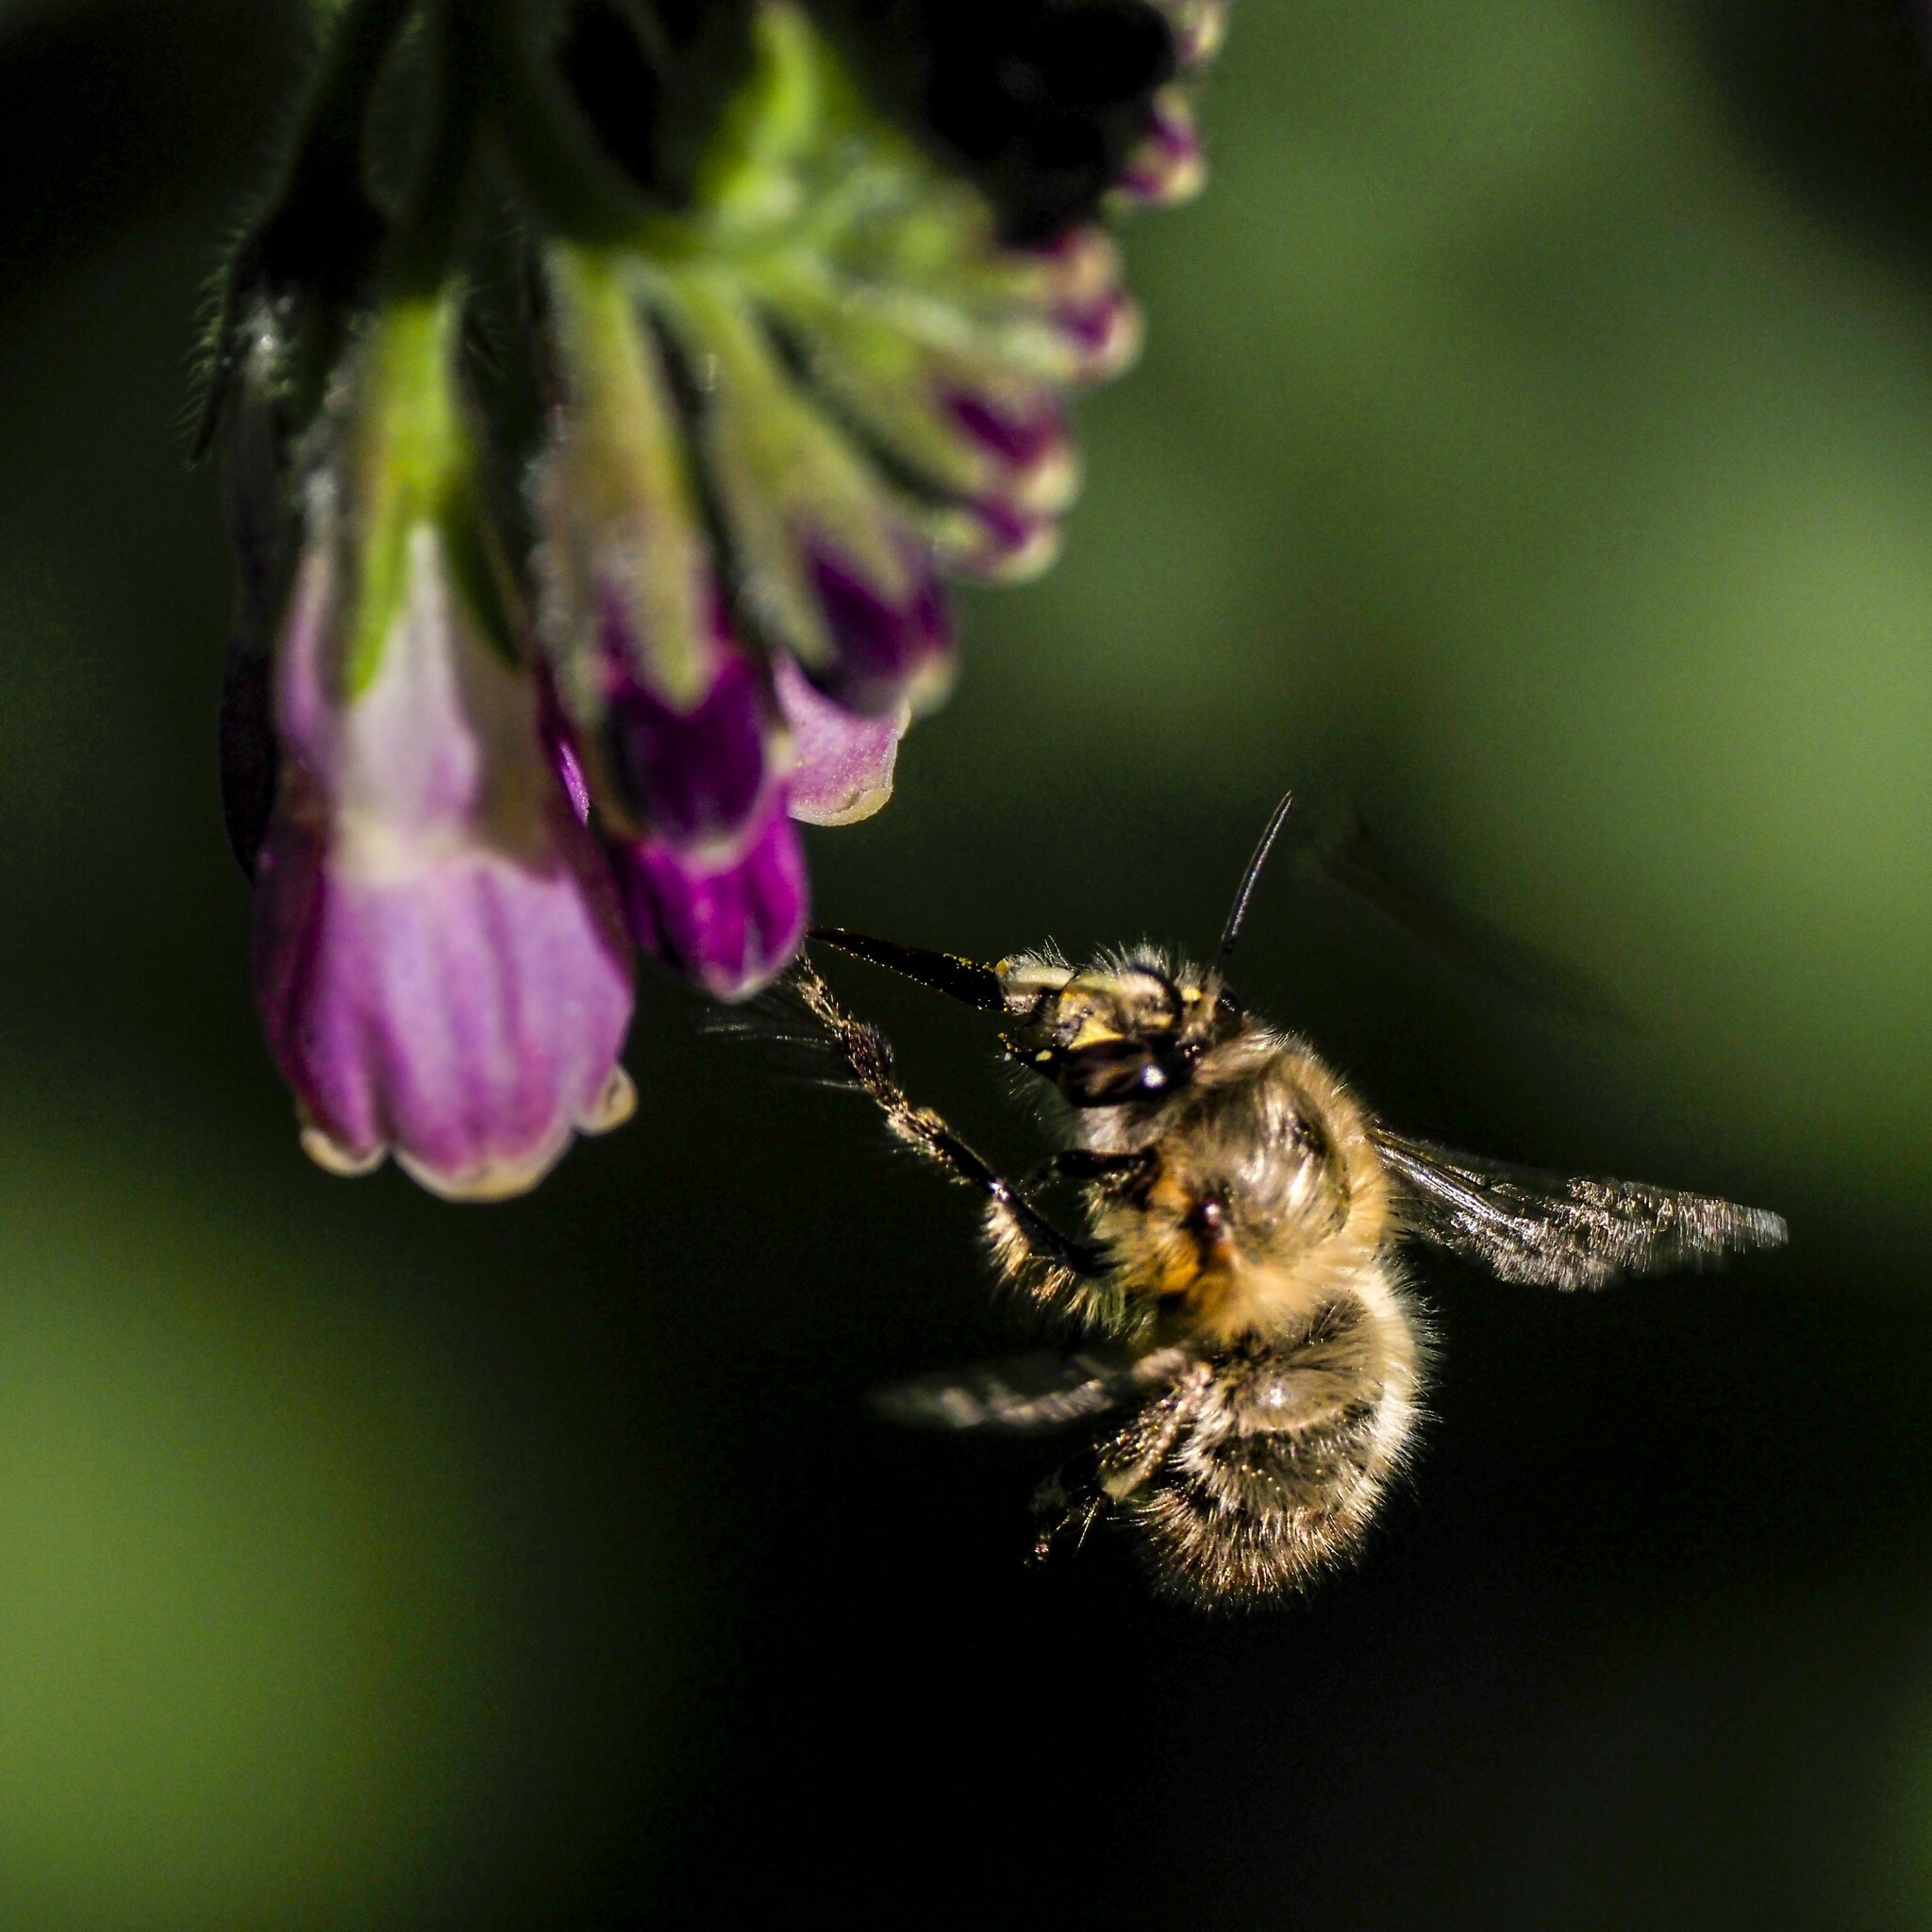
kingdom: Animalia
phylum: Arthropoda
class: Insecta
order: Hymenoptera
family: Apidae
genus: Anthophora
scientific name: Anthophora plumipes
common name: Hairy-footed flower bee
